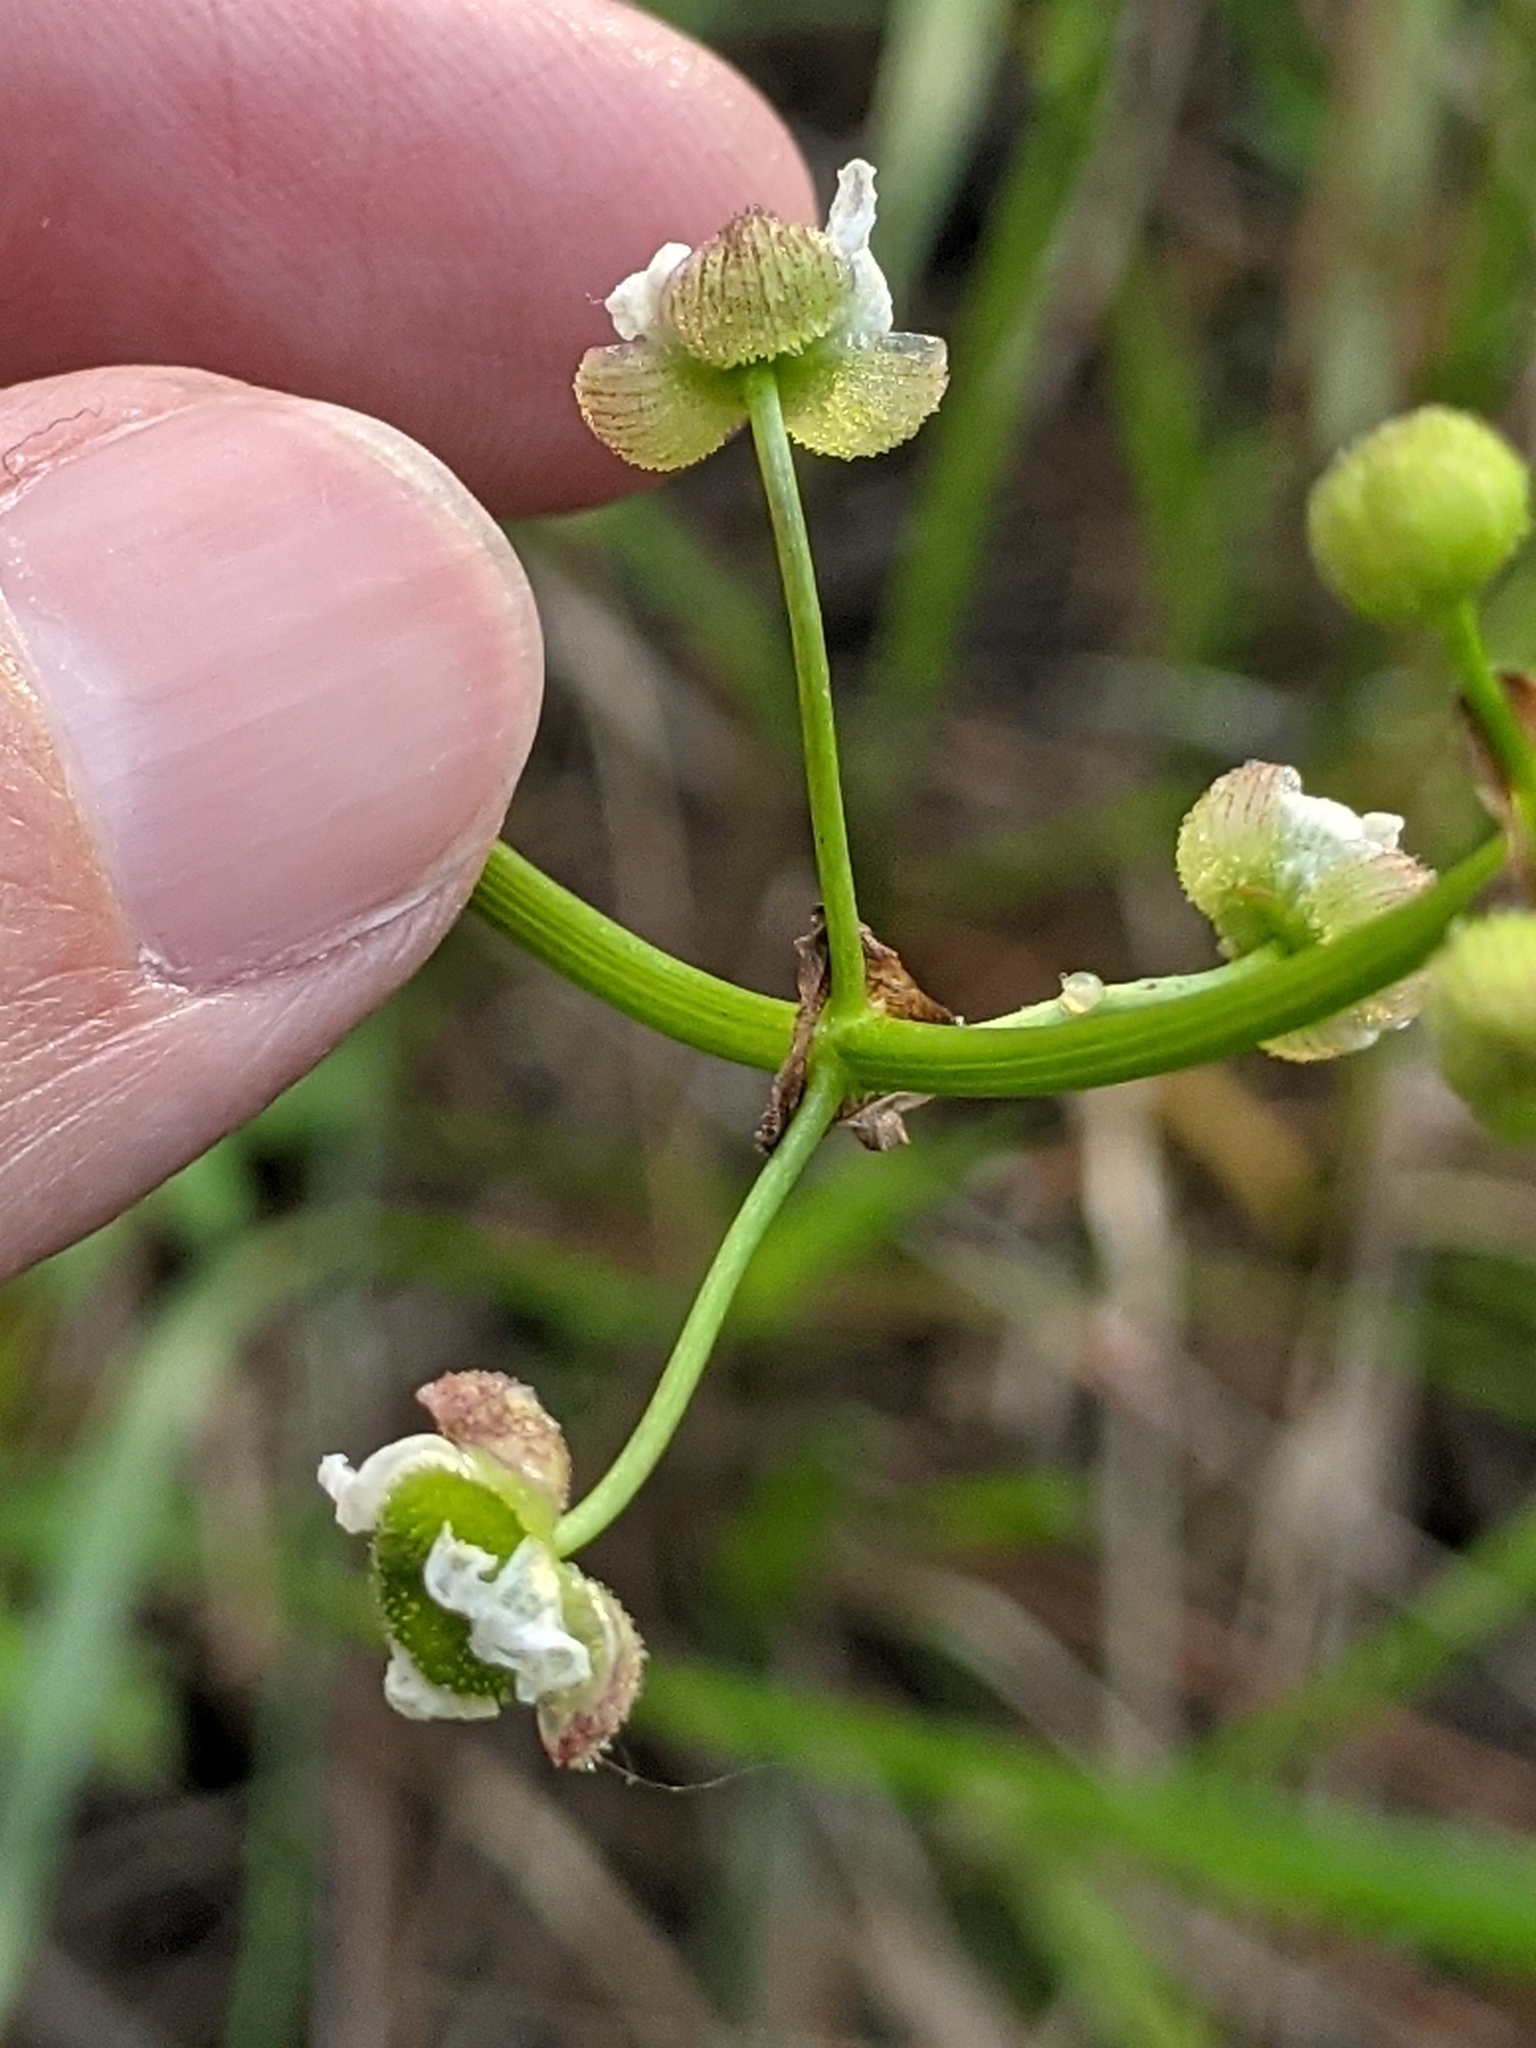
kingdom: Plantae
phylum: Tracheophyta
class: Liliopsida
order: Alismatales
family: Alismataceae
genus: Sagittaria
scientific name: Sagittaria papillosa
